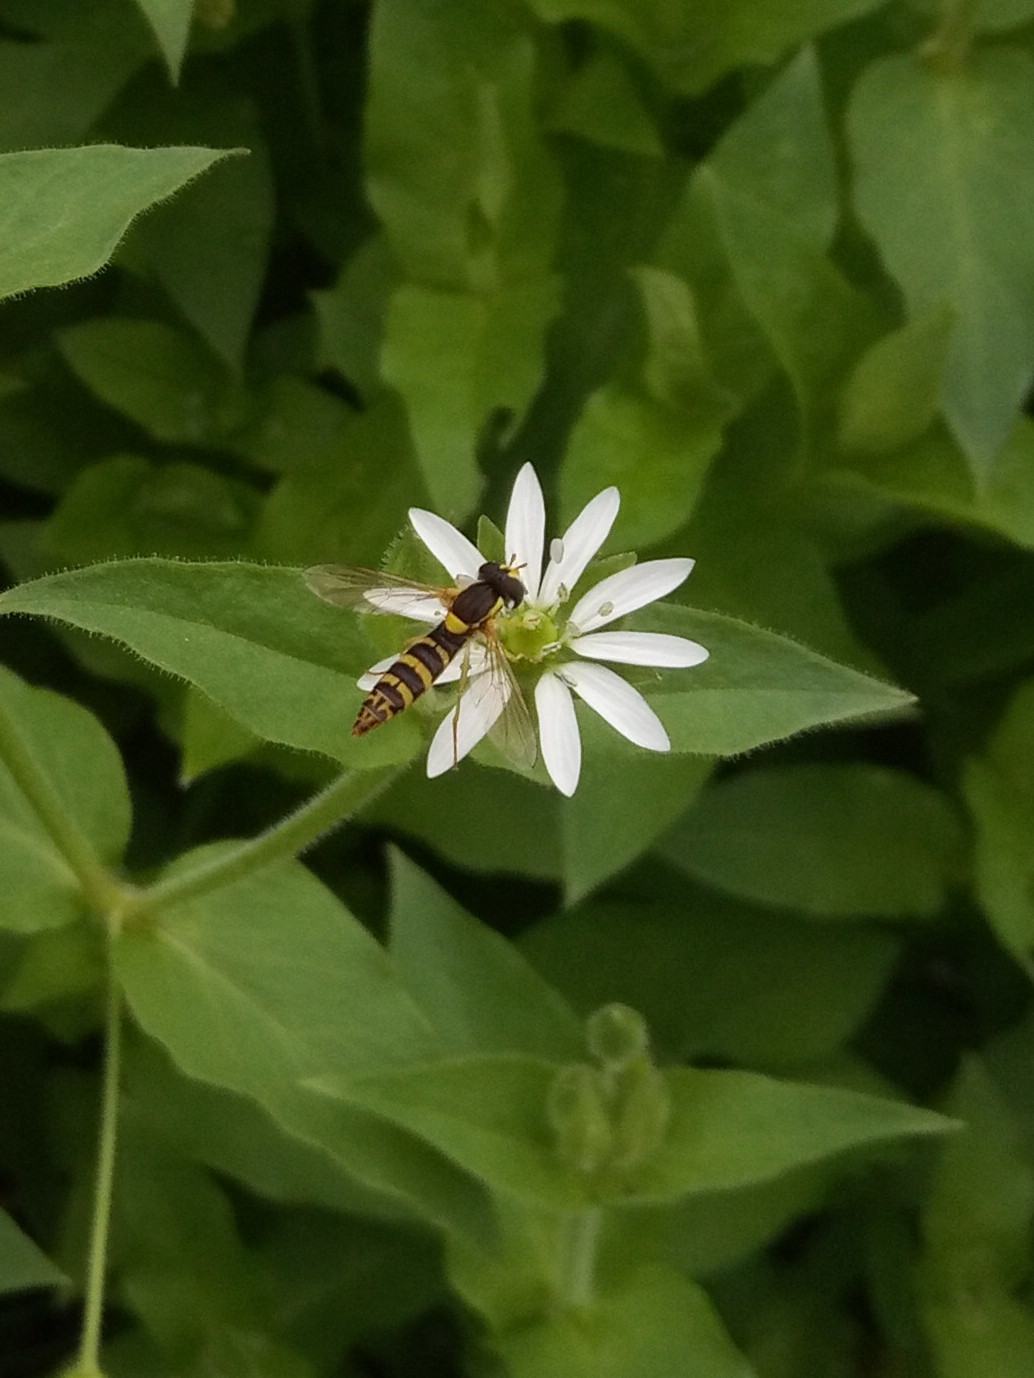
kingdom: Animalia
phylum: Arthropoda
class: Insecta
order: Diptera
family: Syrphidae
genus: Sphaerophoria
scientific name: Sphaerophoria
